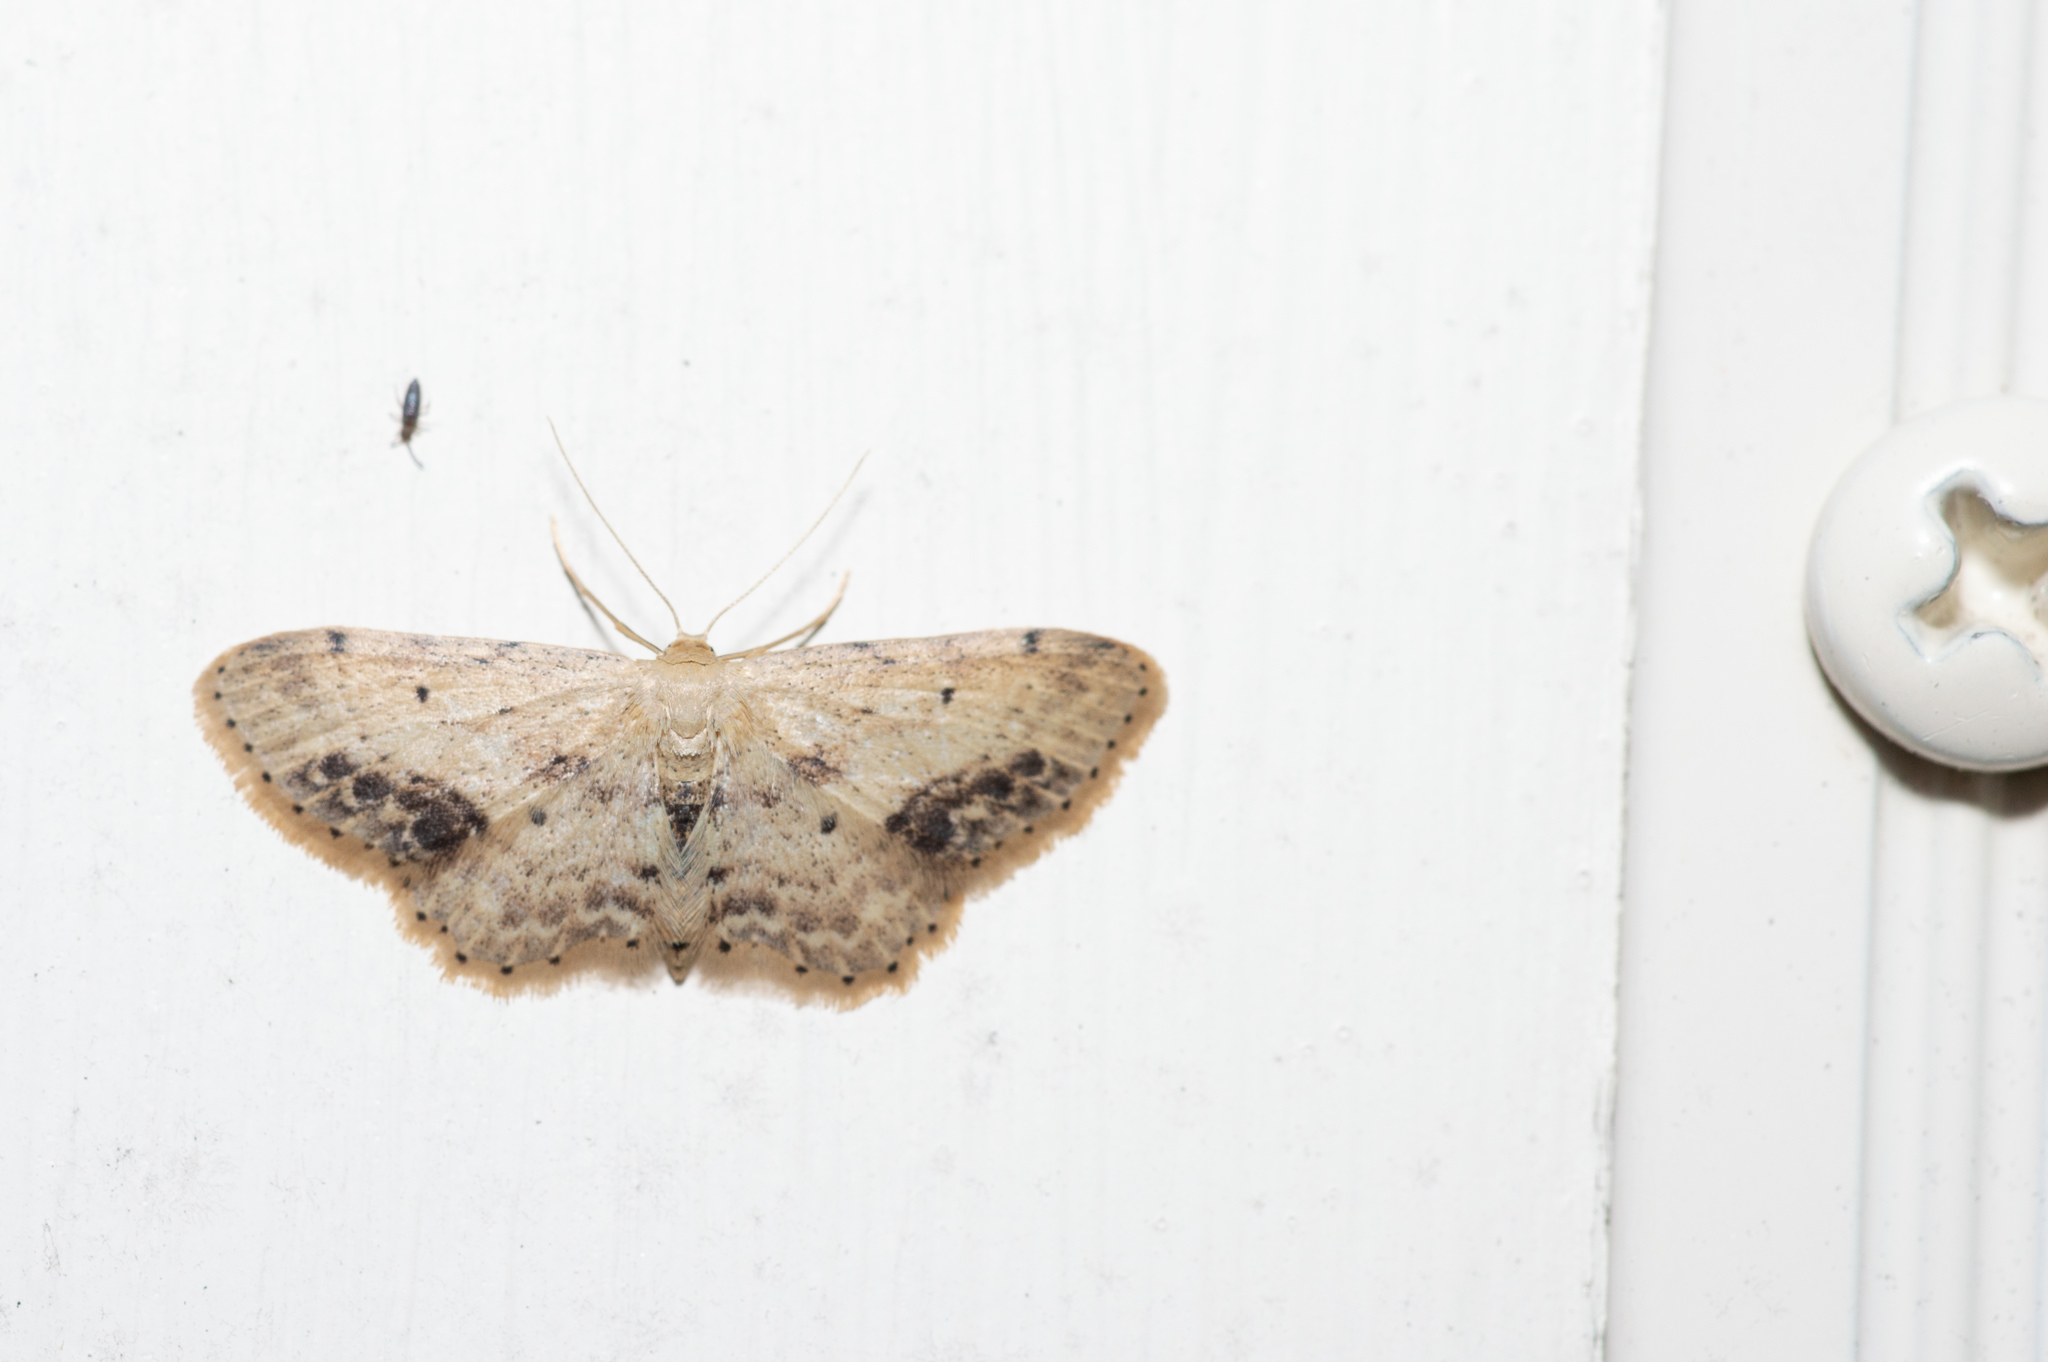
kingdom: Animalia
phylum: Arthropoda
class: Insecta
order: Lepidoptera
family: Geometridae
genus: Idaea
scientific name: Idaea dimidiata
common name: Single-dotted wave
